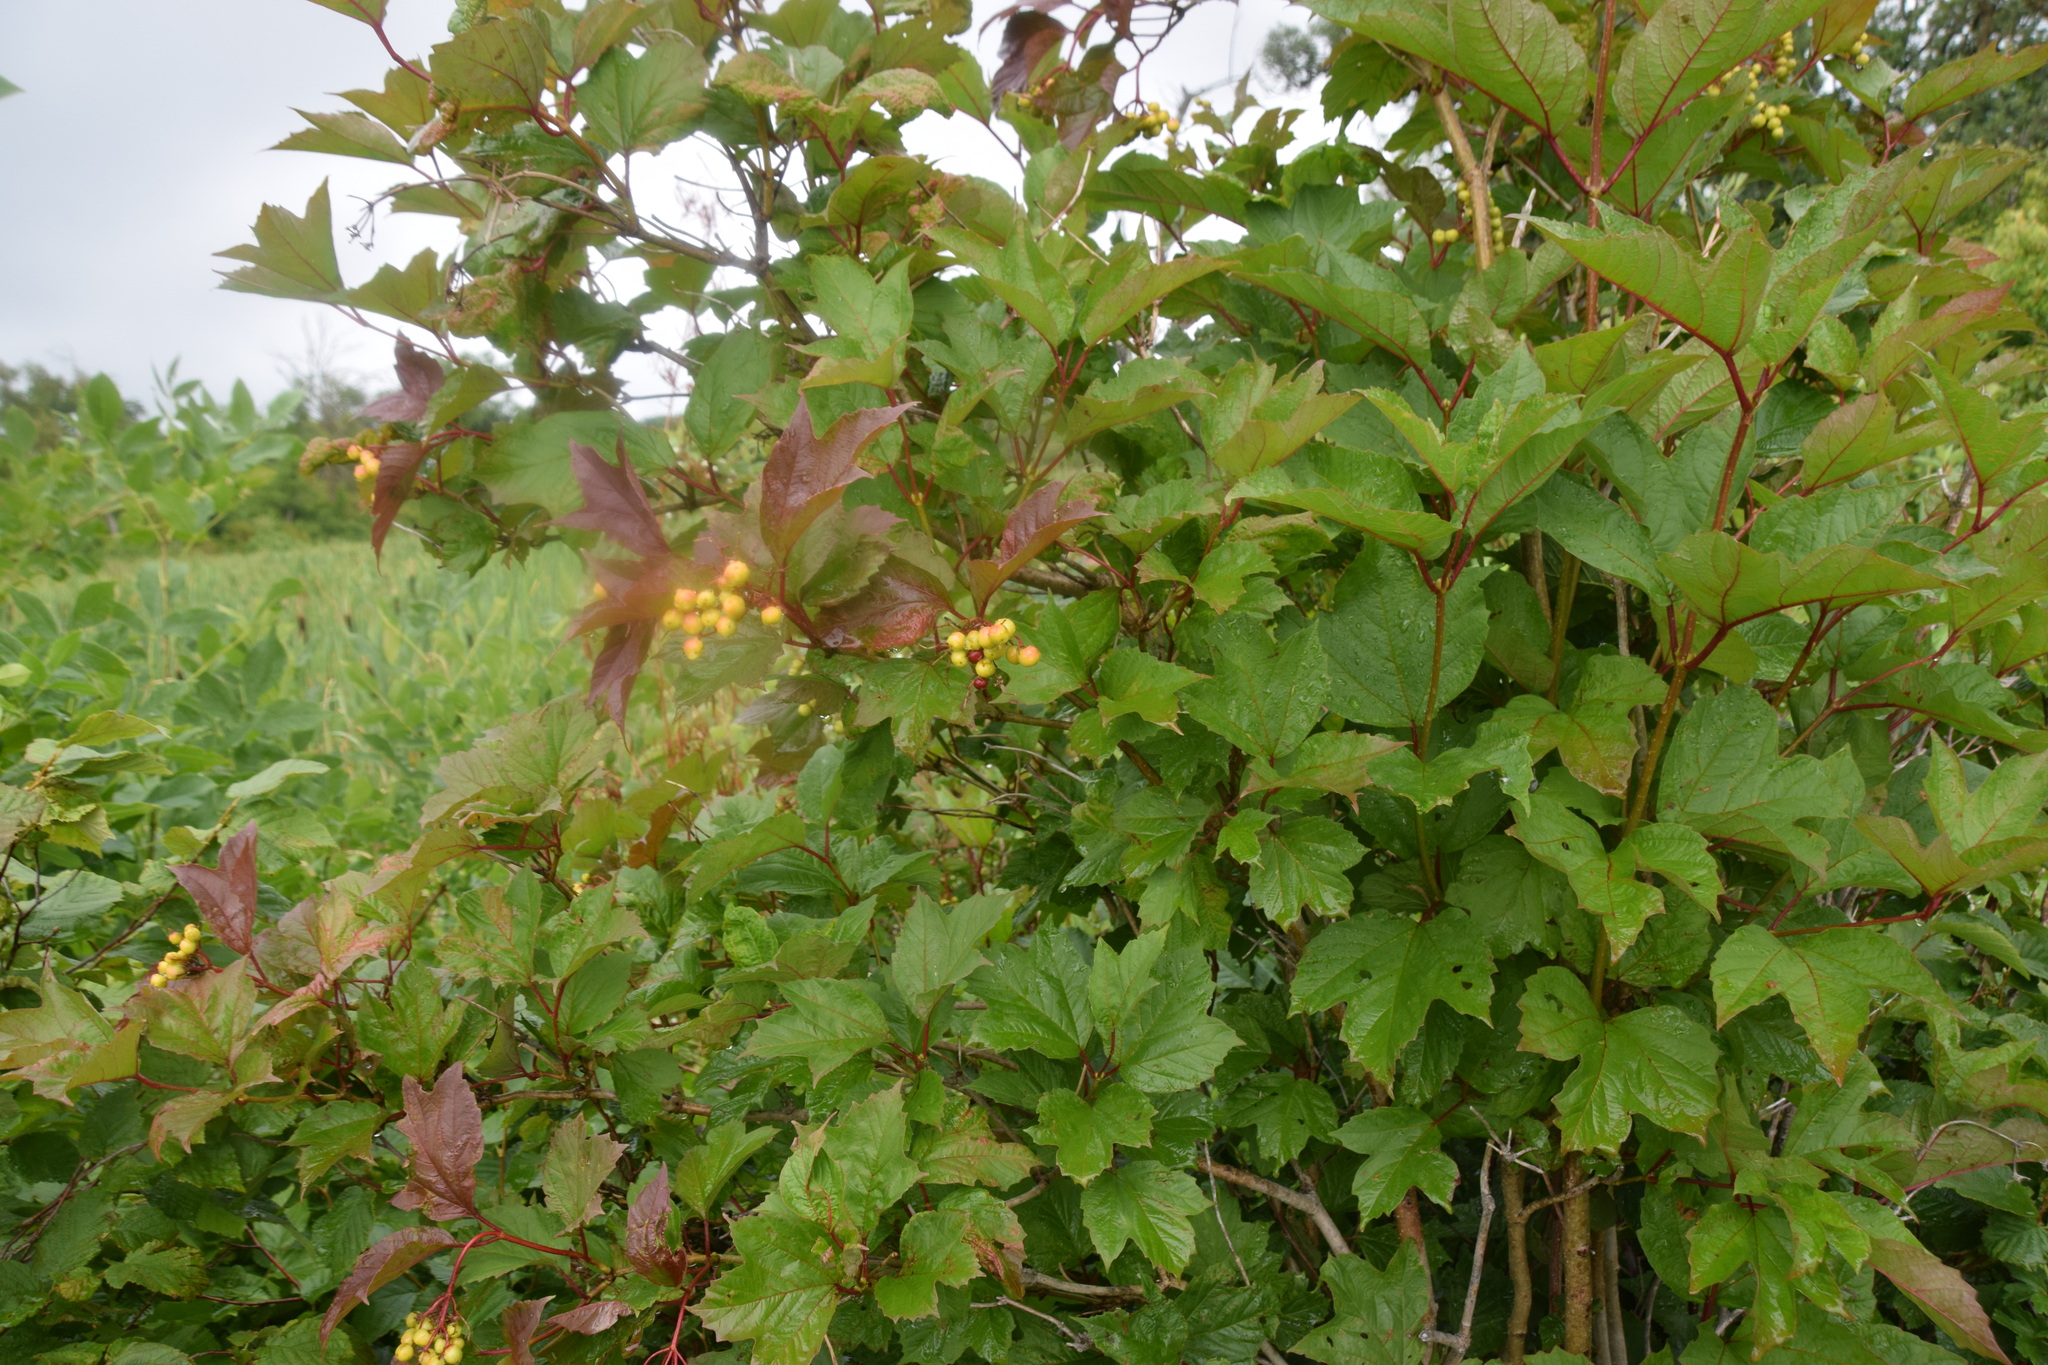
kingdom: Plantae
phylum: Tracheophyta
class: Magnoliopsida
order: Dipsacales
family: Viburnaceae
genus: Viburnum
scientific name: Viburnum opulus
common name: Guelder-rose
